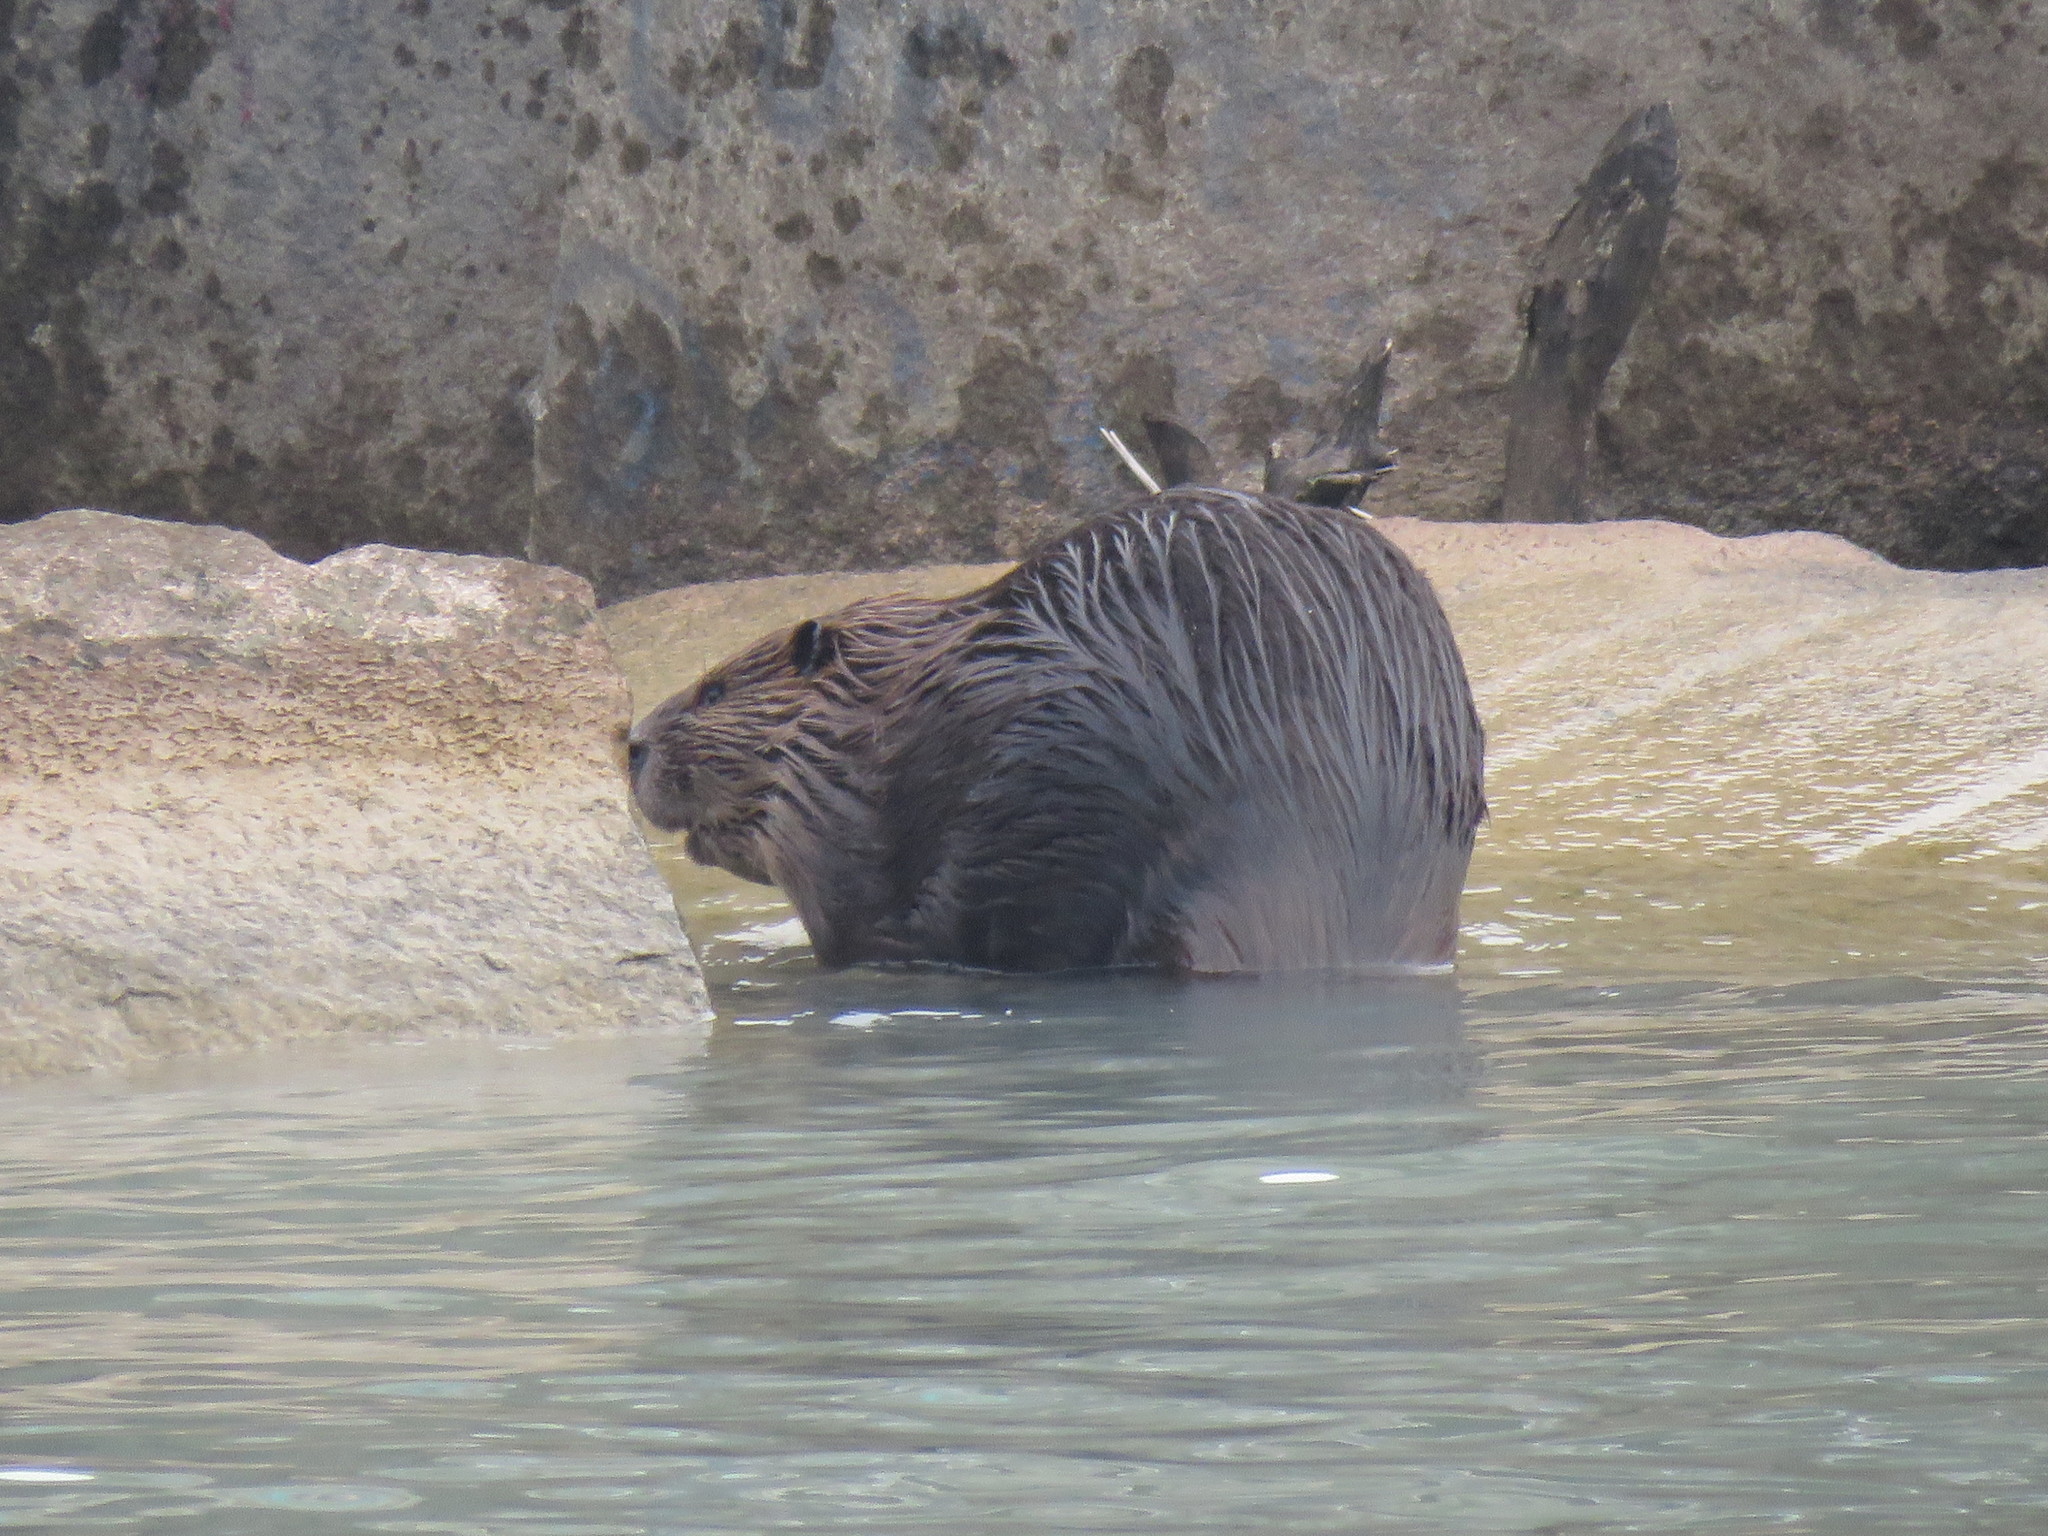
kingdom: Animalia
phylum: Chordata
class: Mammalia
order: Rodentia
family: Castoridae
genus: Castor
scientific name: Castor canadensis
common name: American beaver
